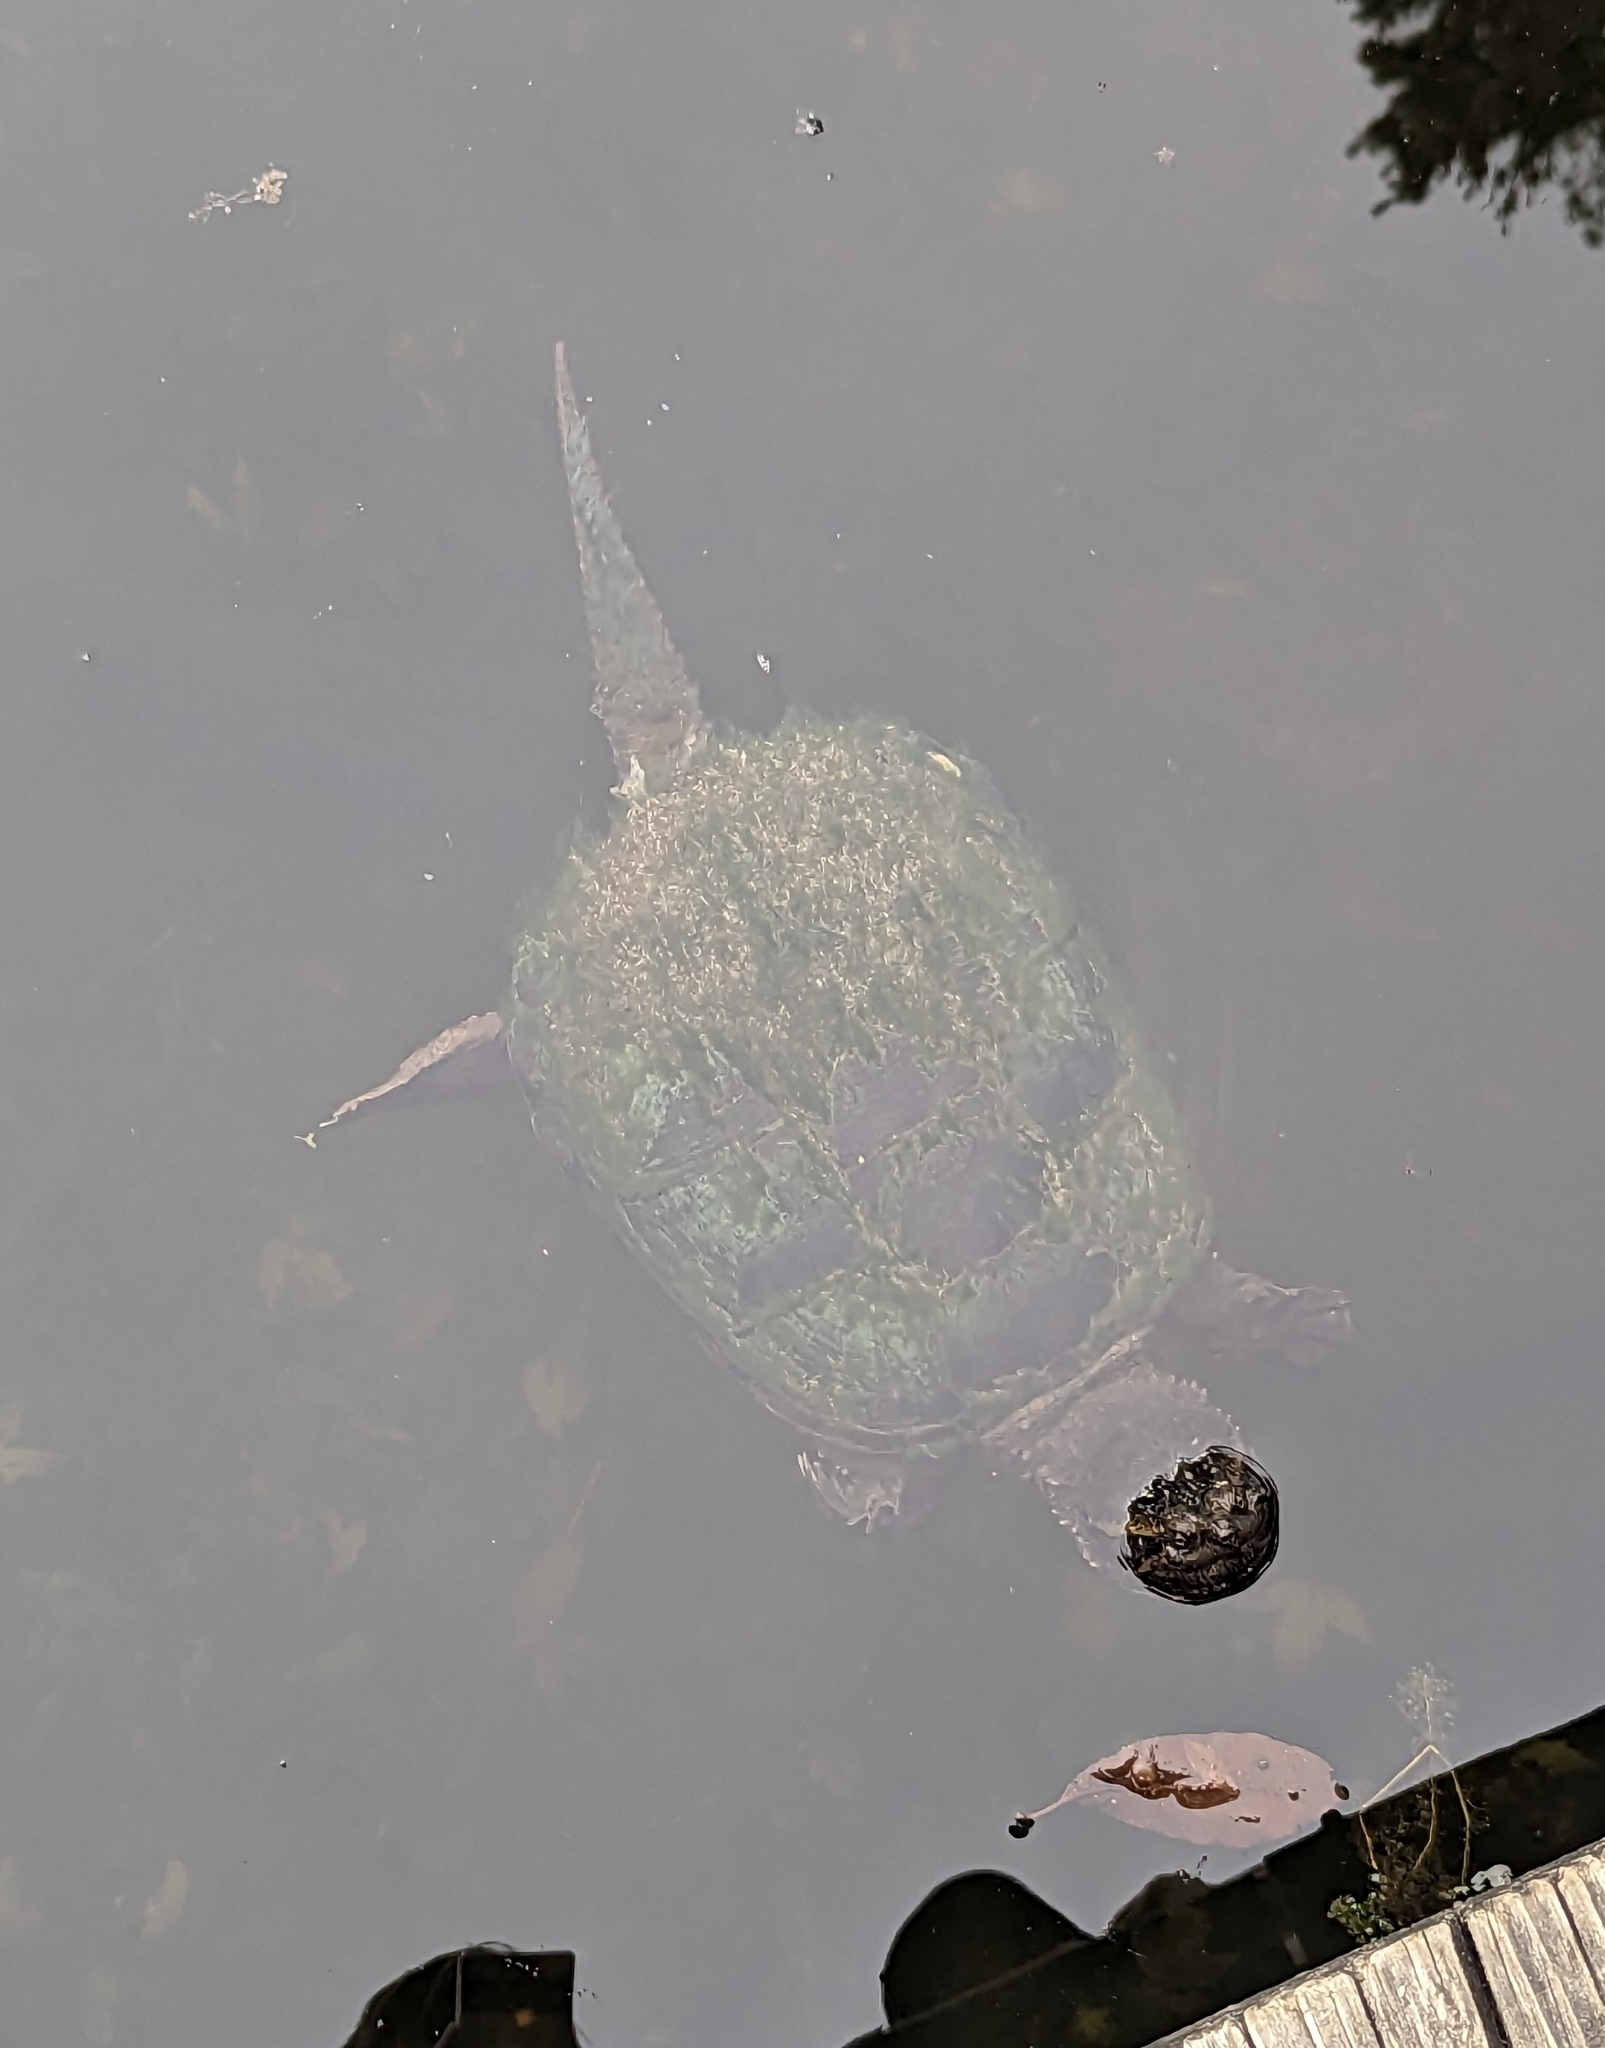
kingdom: Animalia
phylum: Chordata
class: Testudines
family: Chelydridae
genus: Chelydra
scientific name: Chelydra serpentina
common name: Common snapping turtle
